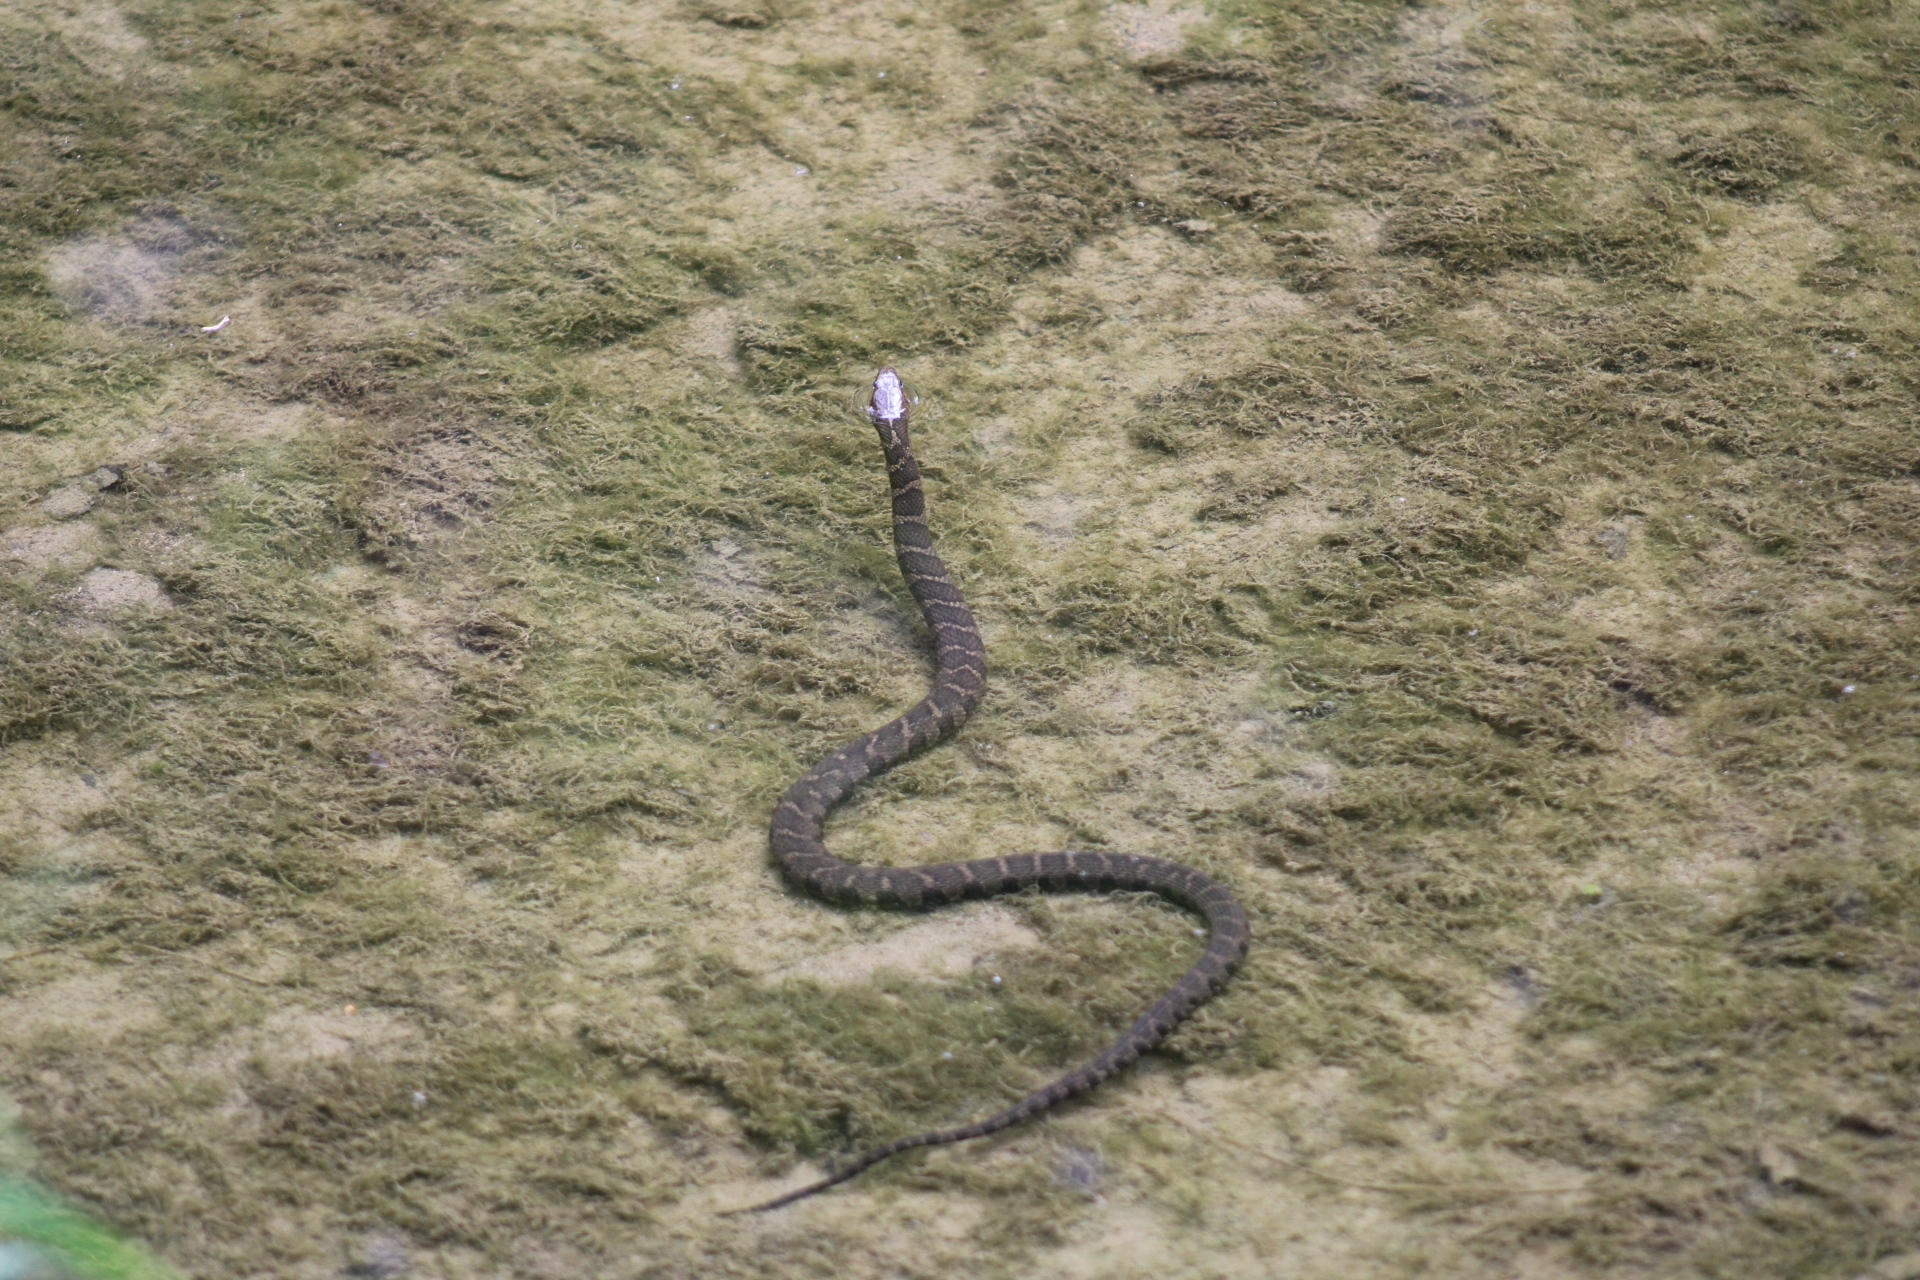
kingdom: Animalia
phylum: Chordata
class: Squamata
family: Colubridae
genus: Nerodia
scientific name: Nerodia sipedon
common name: Northern water snake
